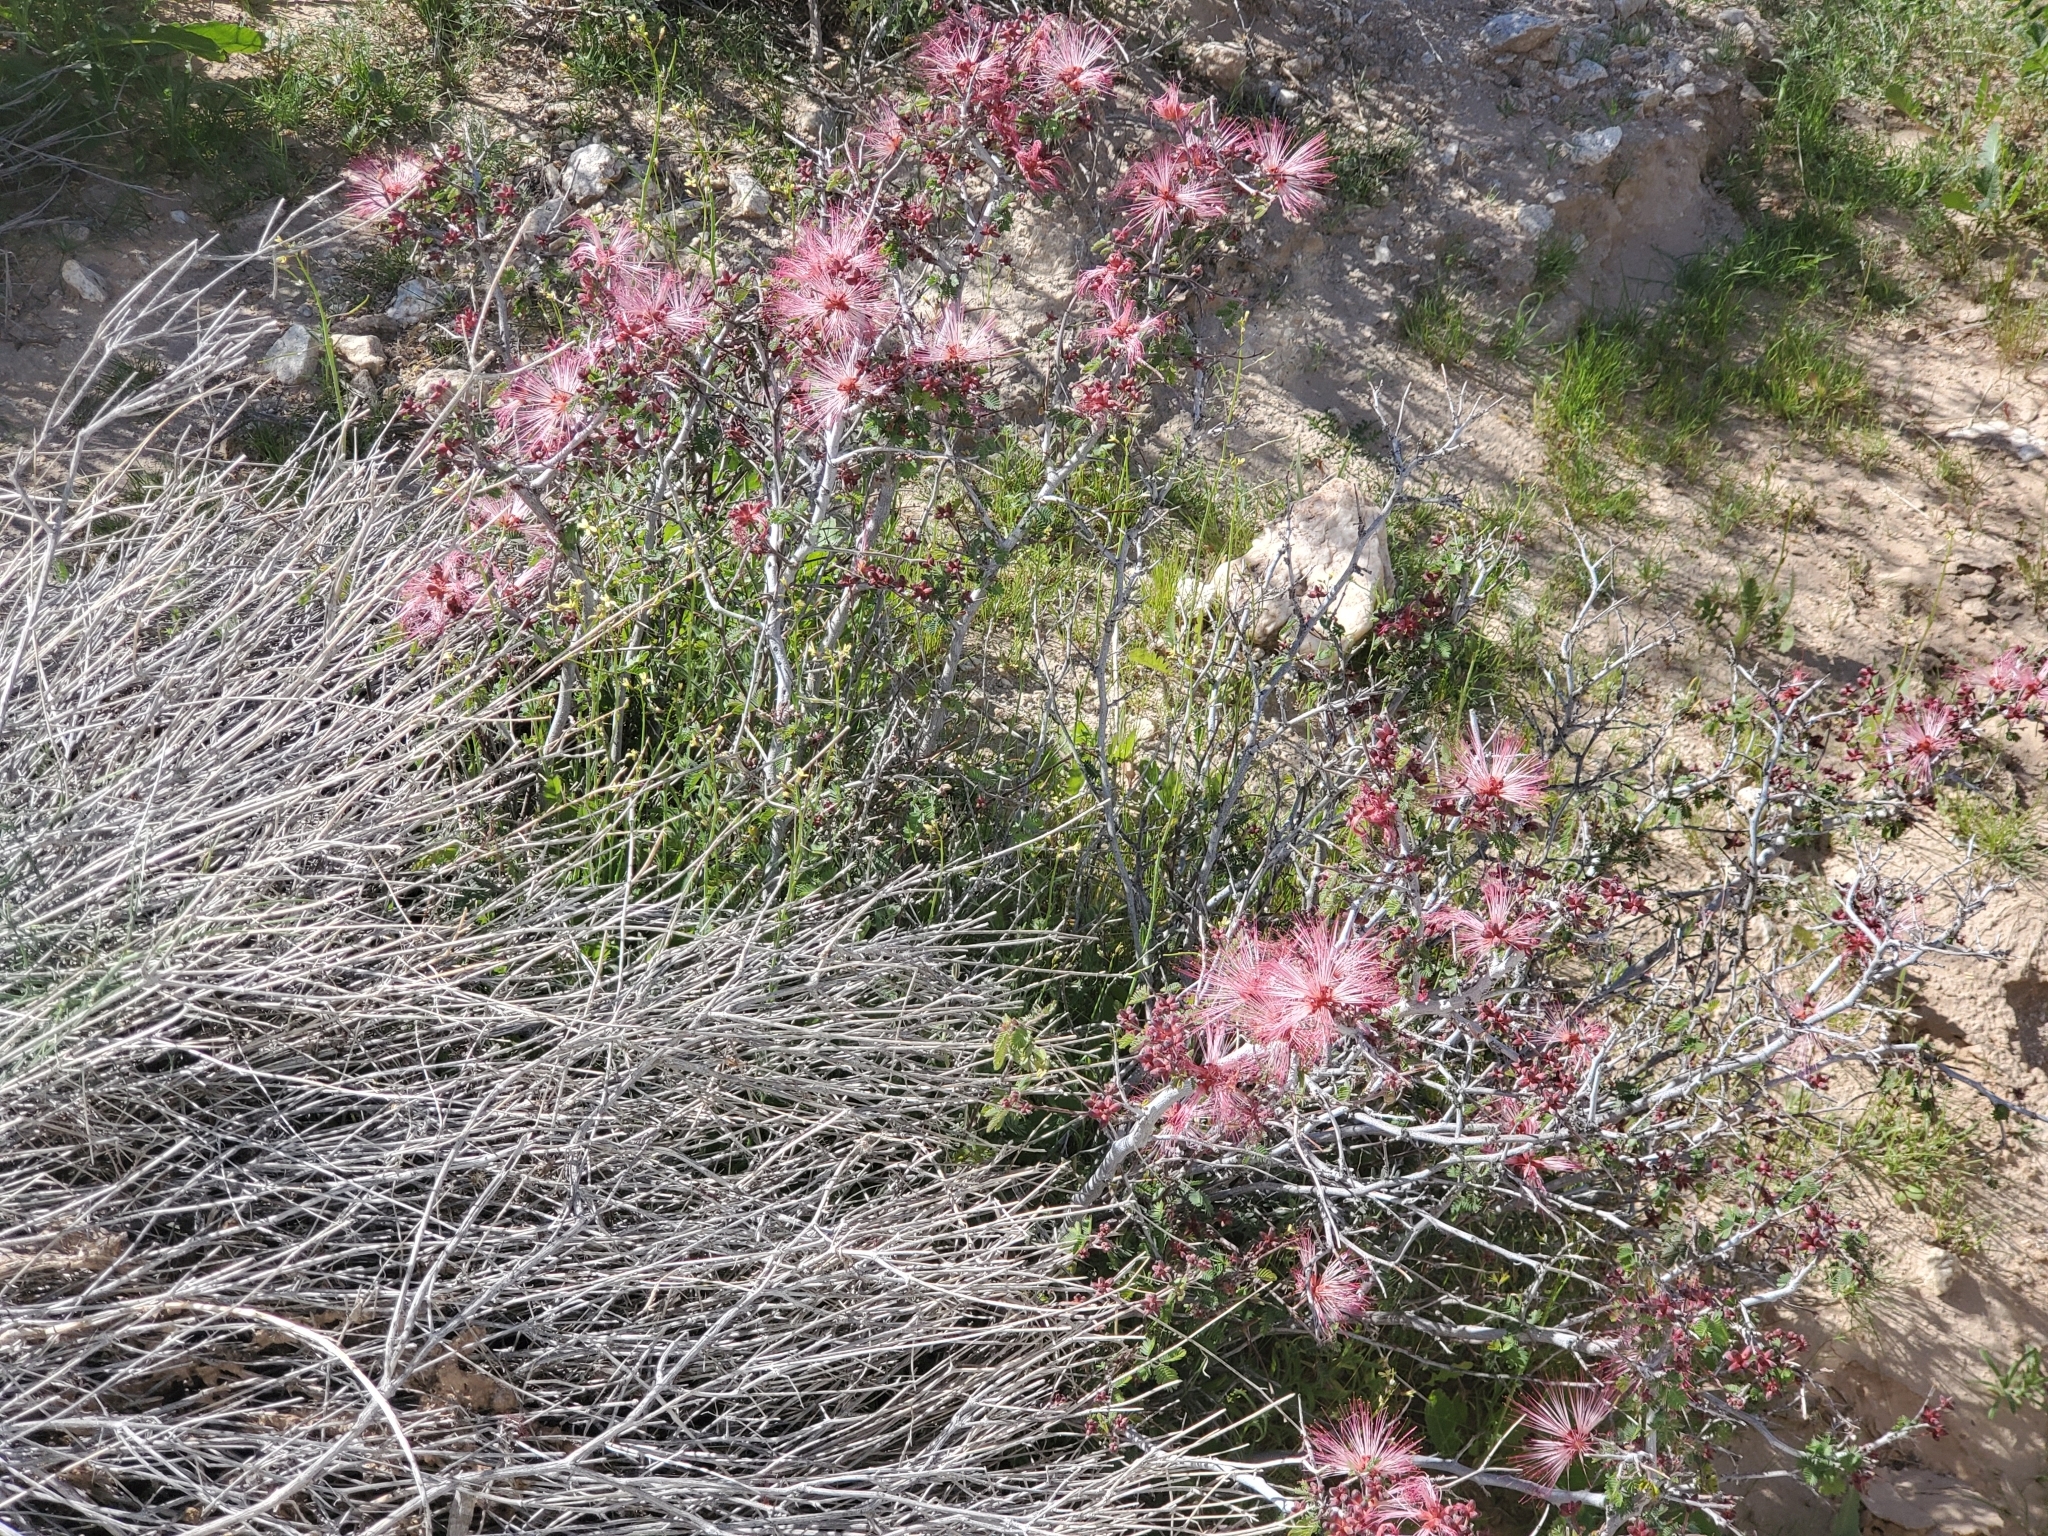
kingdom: Plantae
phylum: Tracheophyta
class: Magnoliopsida
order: Fabales
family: Fabaceae
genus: Calliandra
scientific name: Calliandra eriophylla
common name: Fairy-duster
